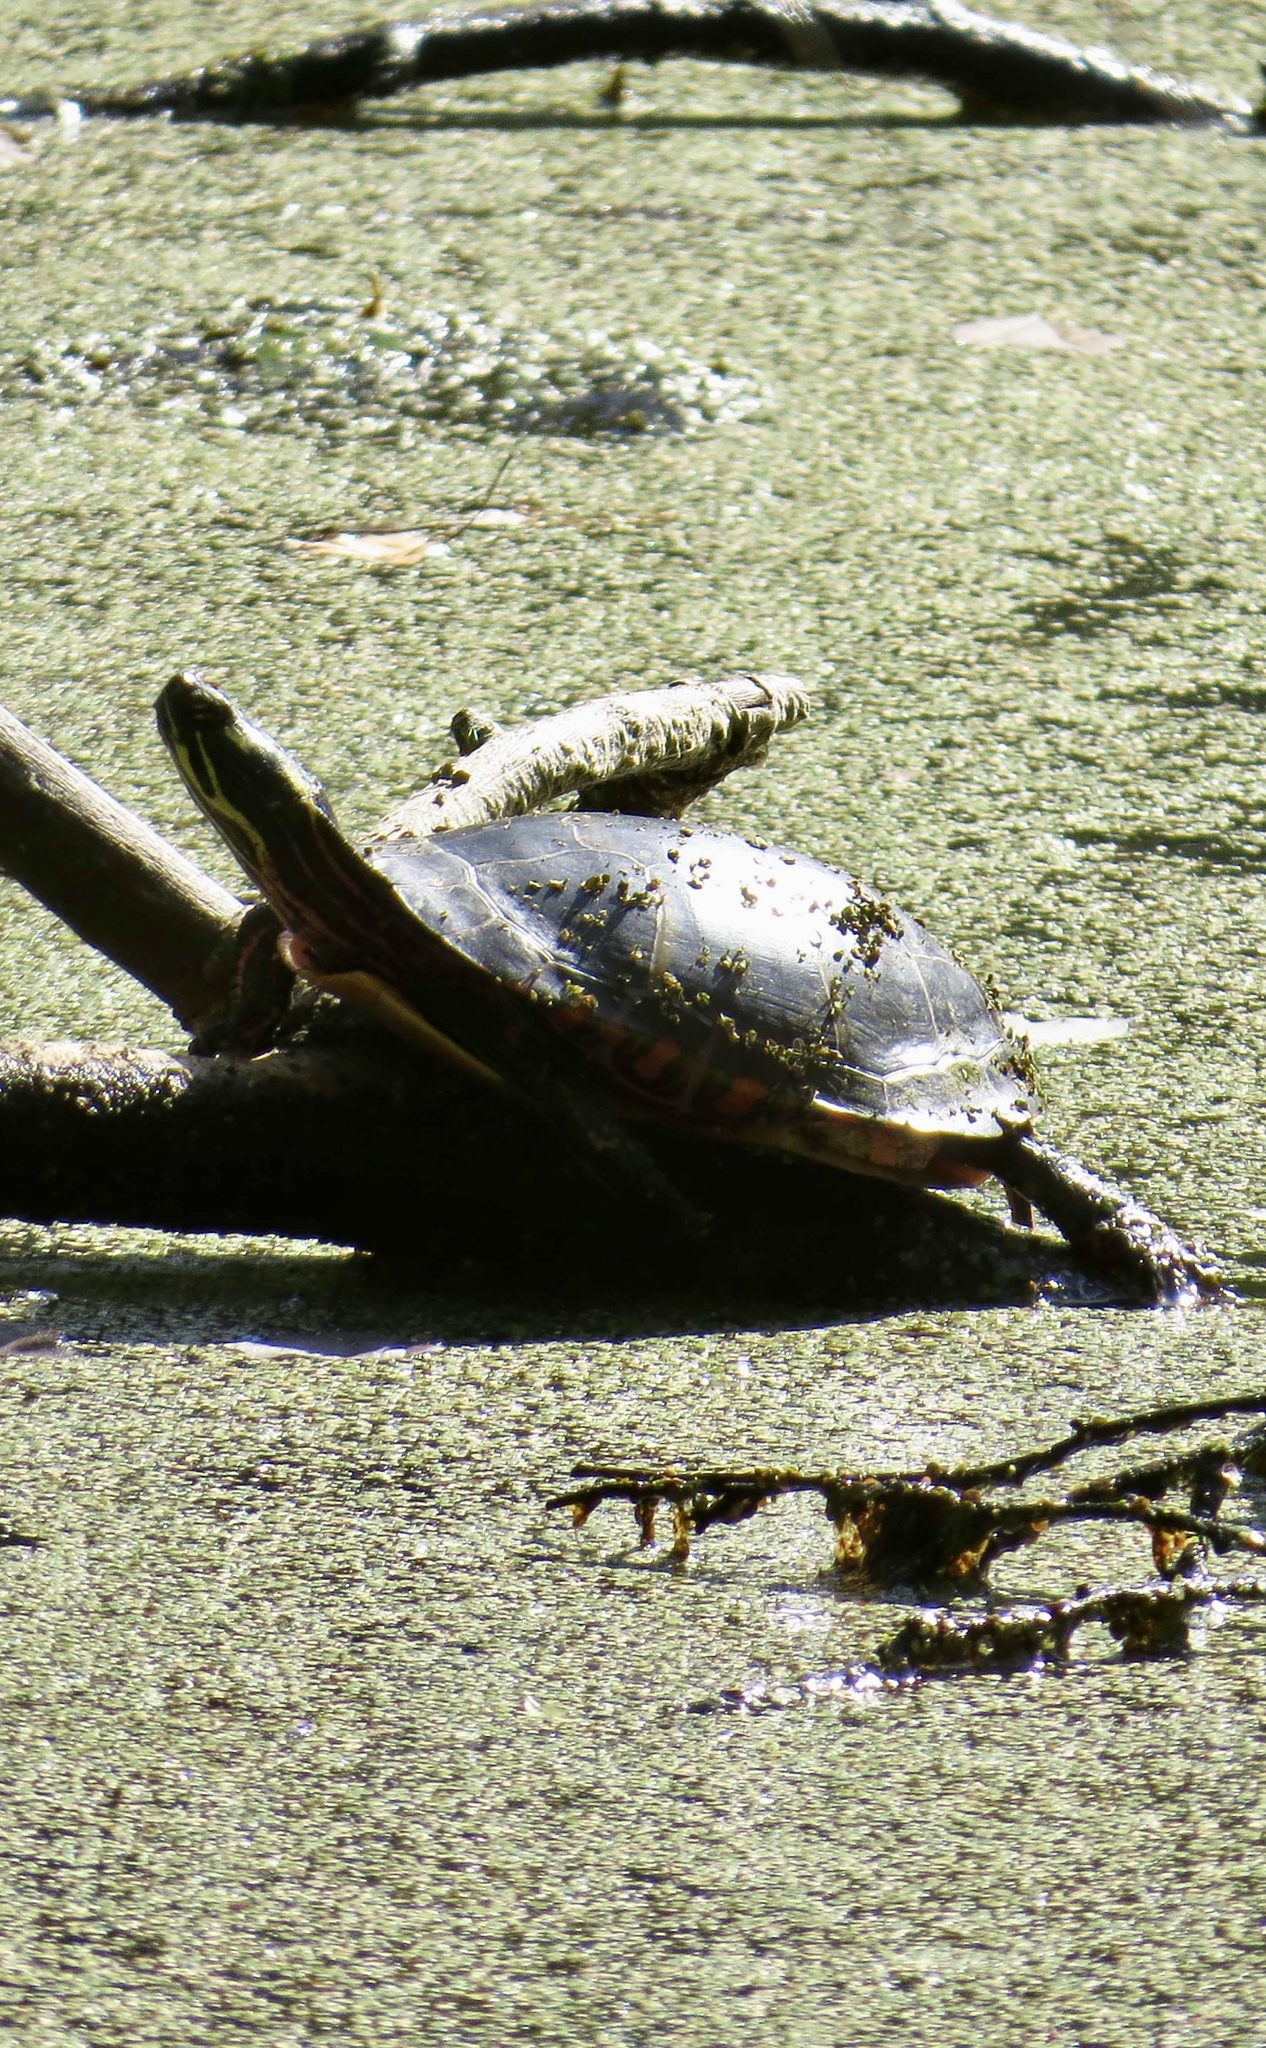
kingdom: Animalia
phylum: Chordata
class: Testudines
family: Emydidae
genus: Chrysemys
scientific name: Chrysemys picta
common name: Painted turtle
